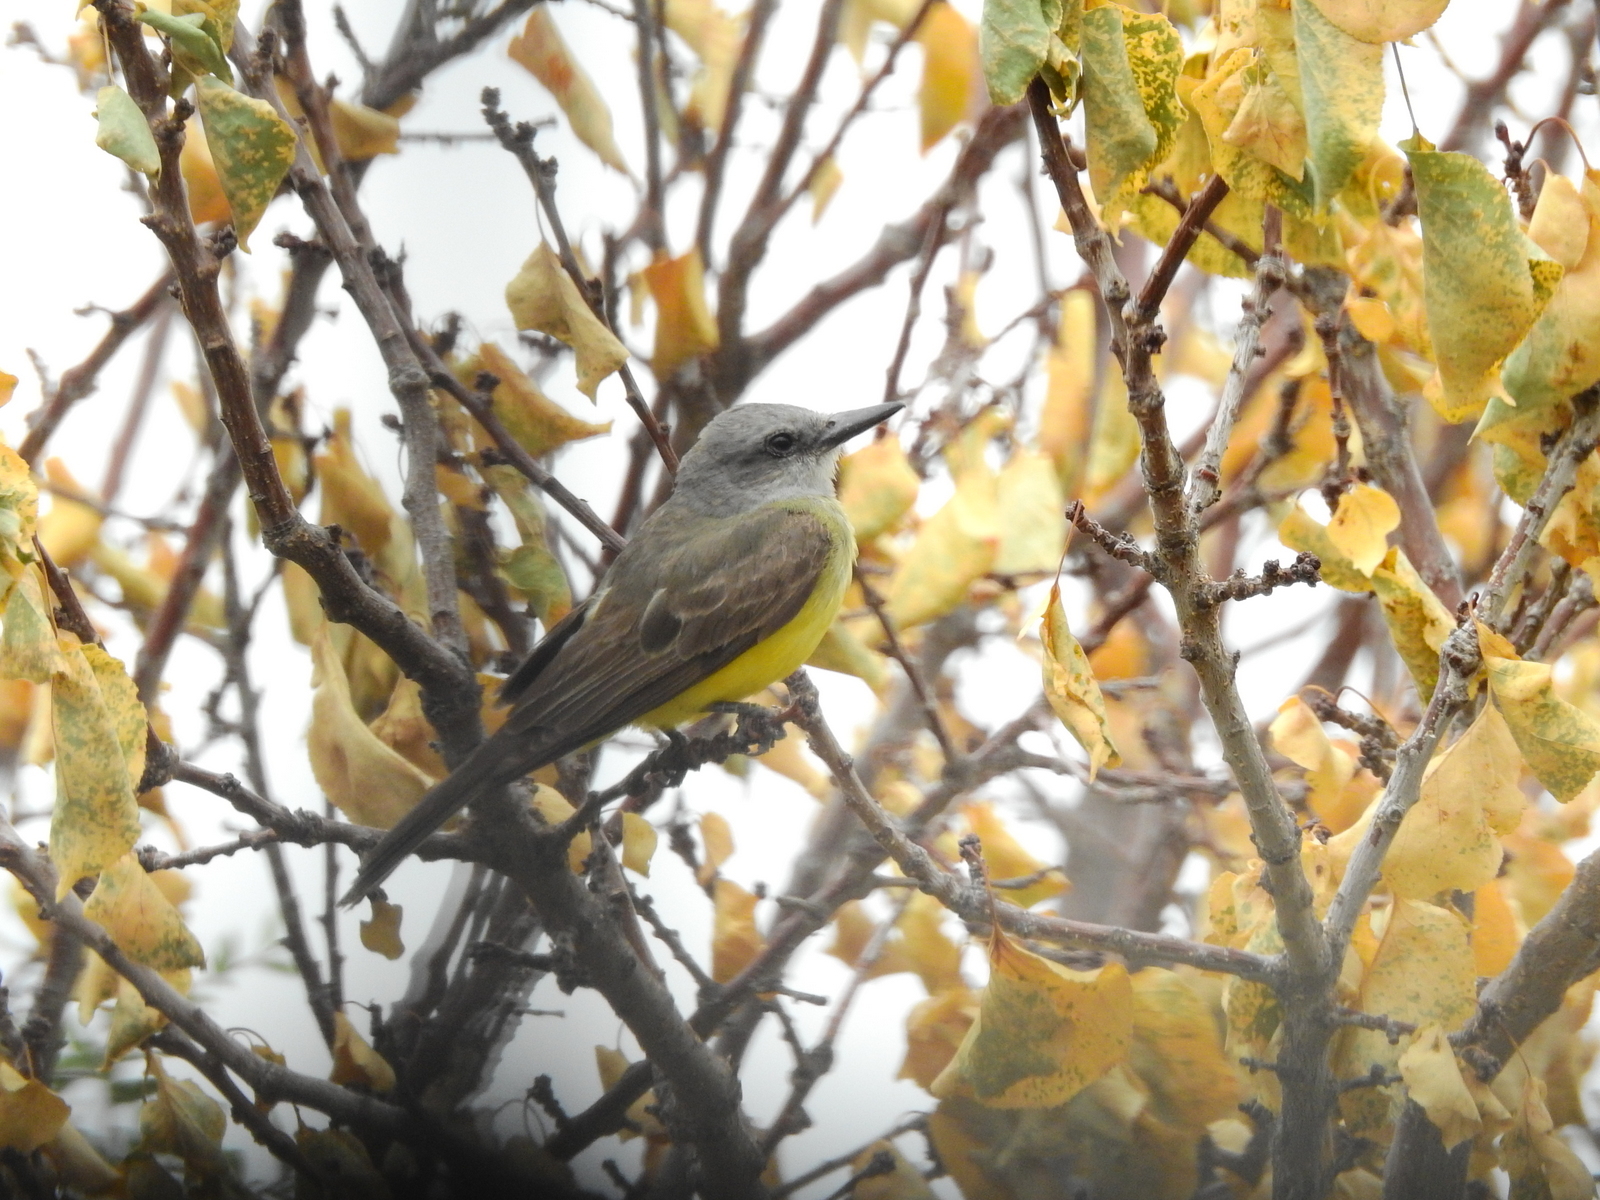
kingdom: Animalia
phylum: Chordata
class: Aves
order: Passeriformes
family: Tyrannidae
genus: Tyrannus
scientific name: Tyrannus melancholicus
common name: Tropical kingbird
